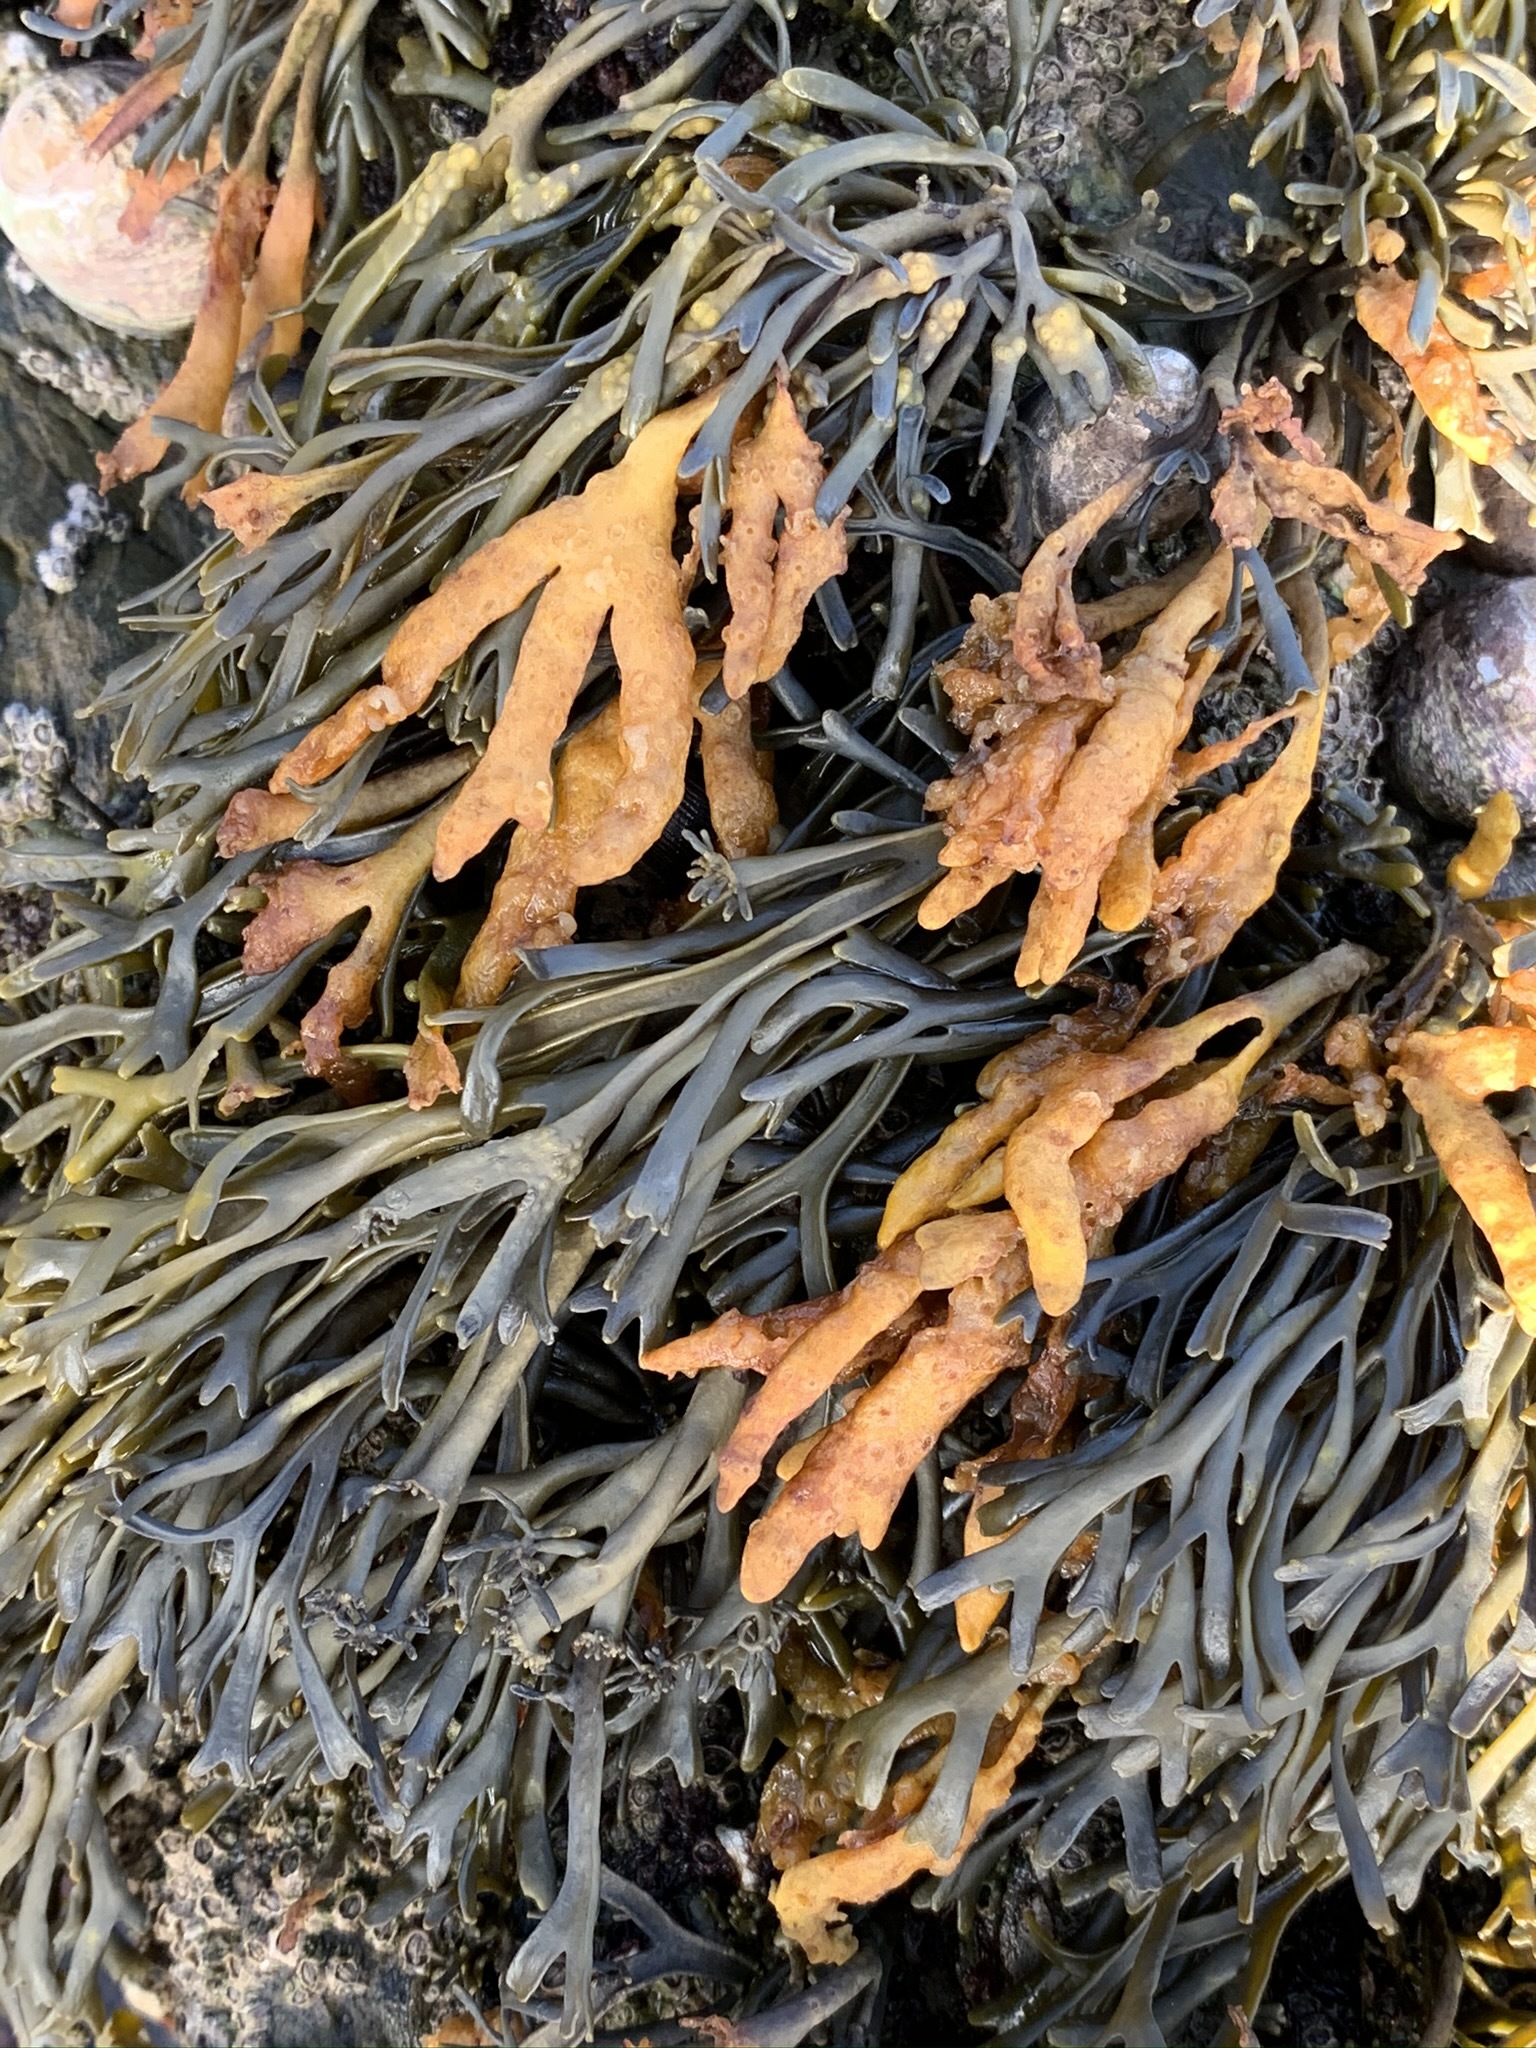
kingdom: Chromista
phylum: Ochrophyta
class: Phaeophyceae
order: Fucales
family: Fucaceae
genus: Pelvetia
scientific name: Pelvetia canaliculata
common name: Channelled wrack
